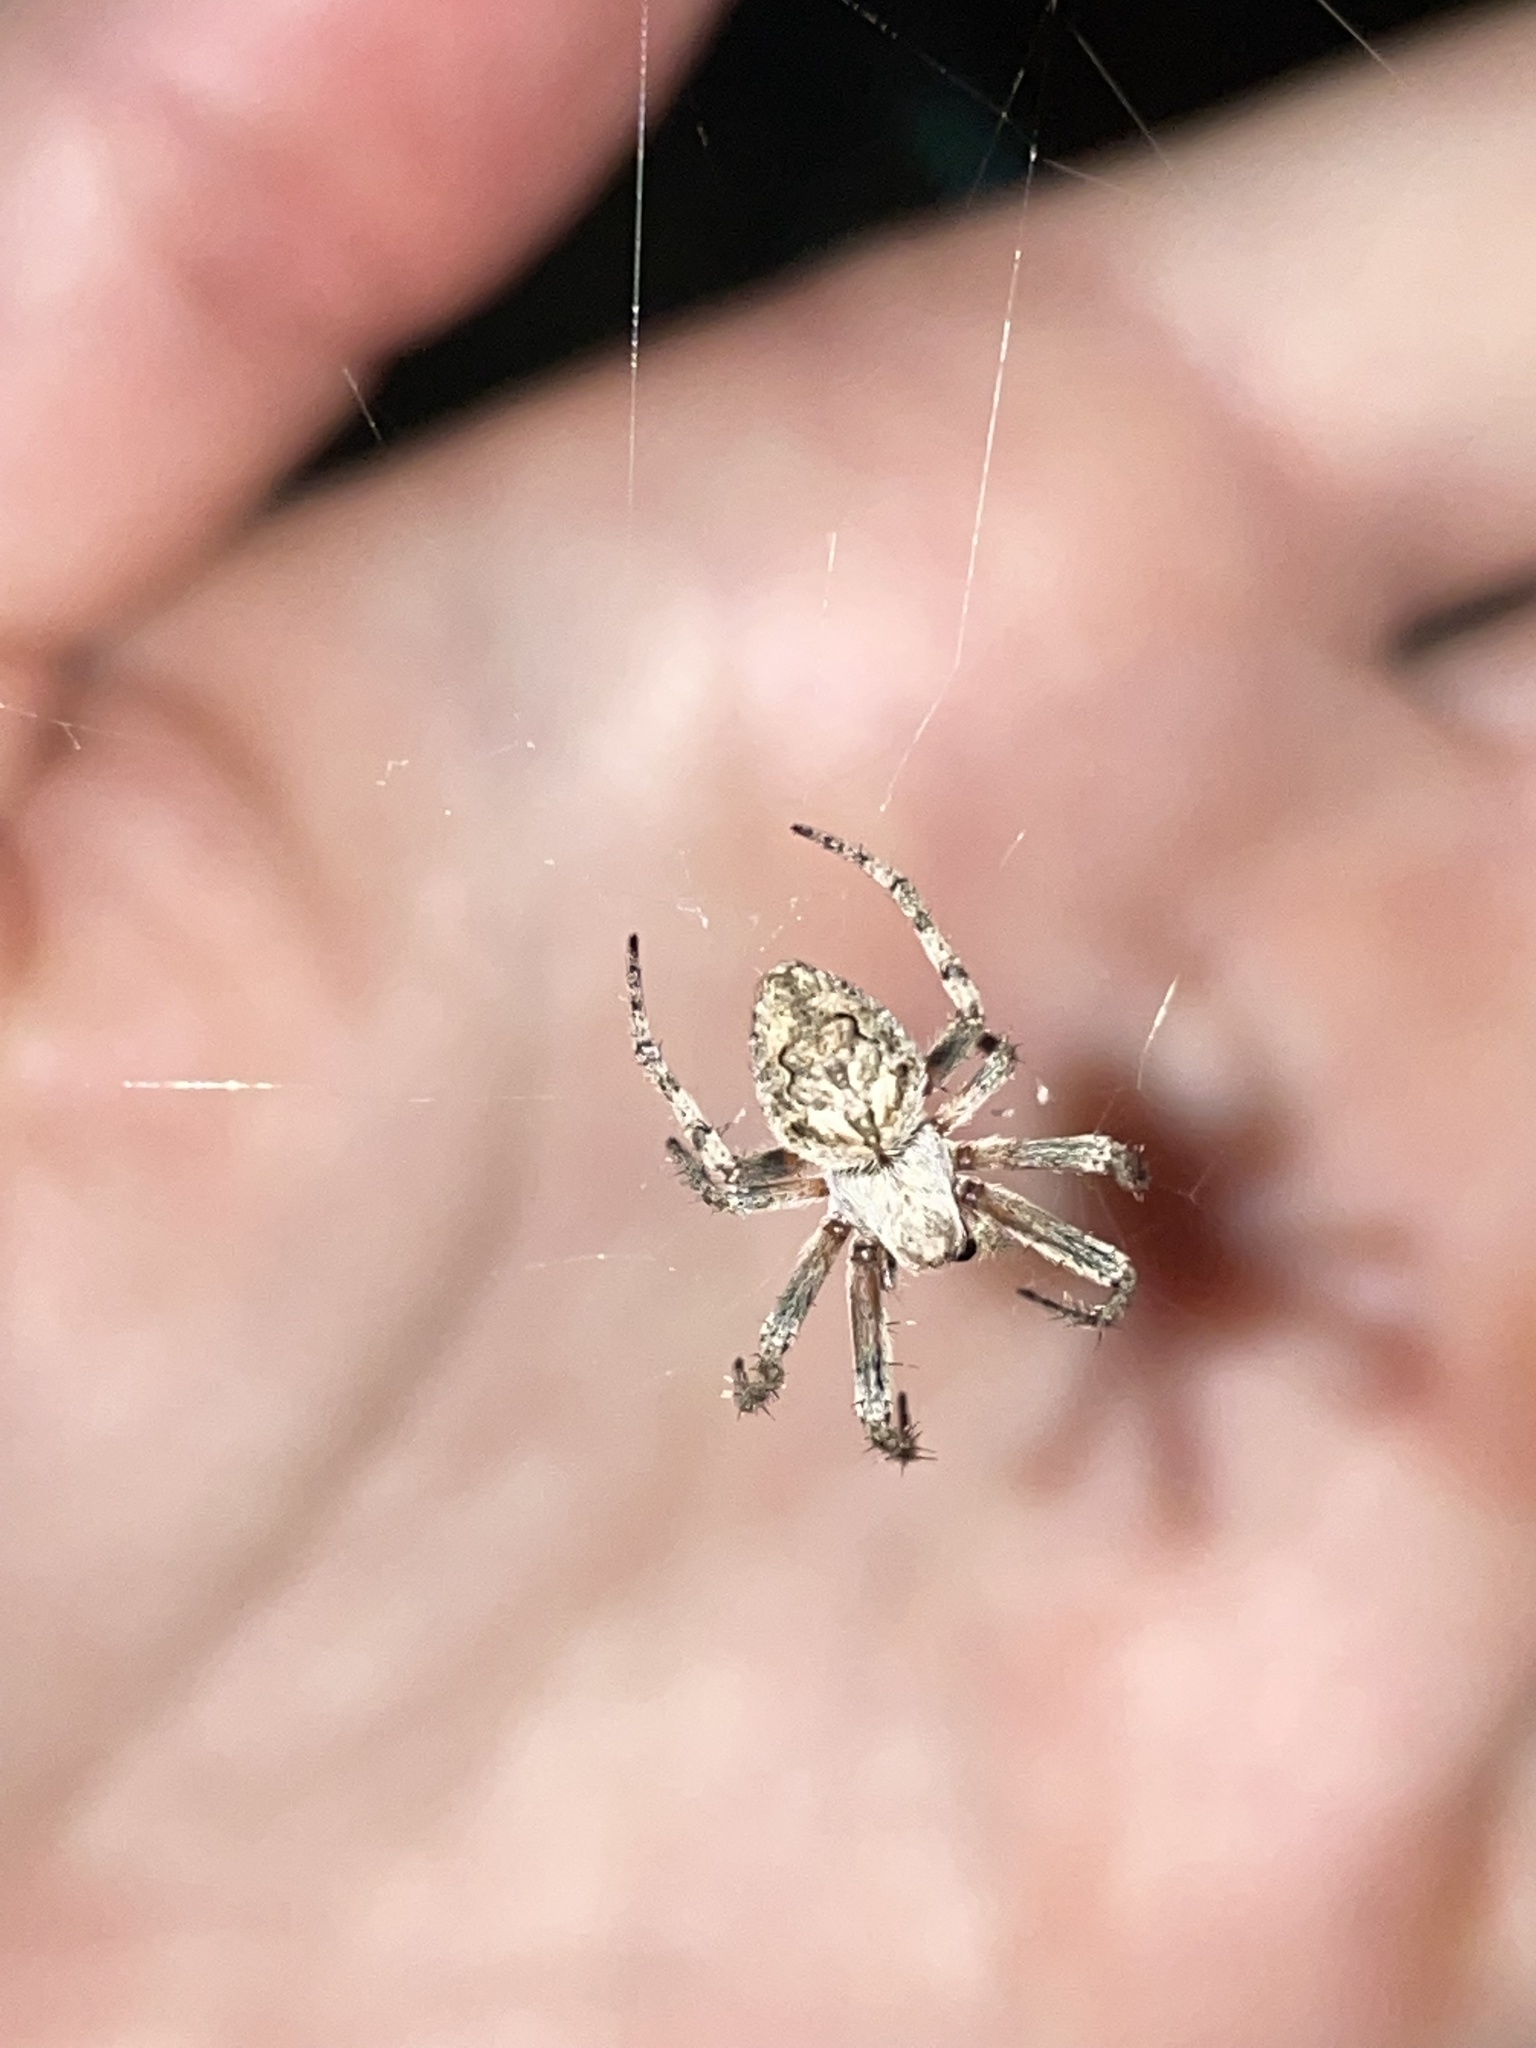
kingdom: Animalia
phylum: Arthropoda
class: Arachnida
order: Araneae
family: Araneidae
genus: Eustala
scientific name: Eustala
